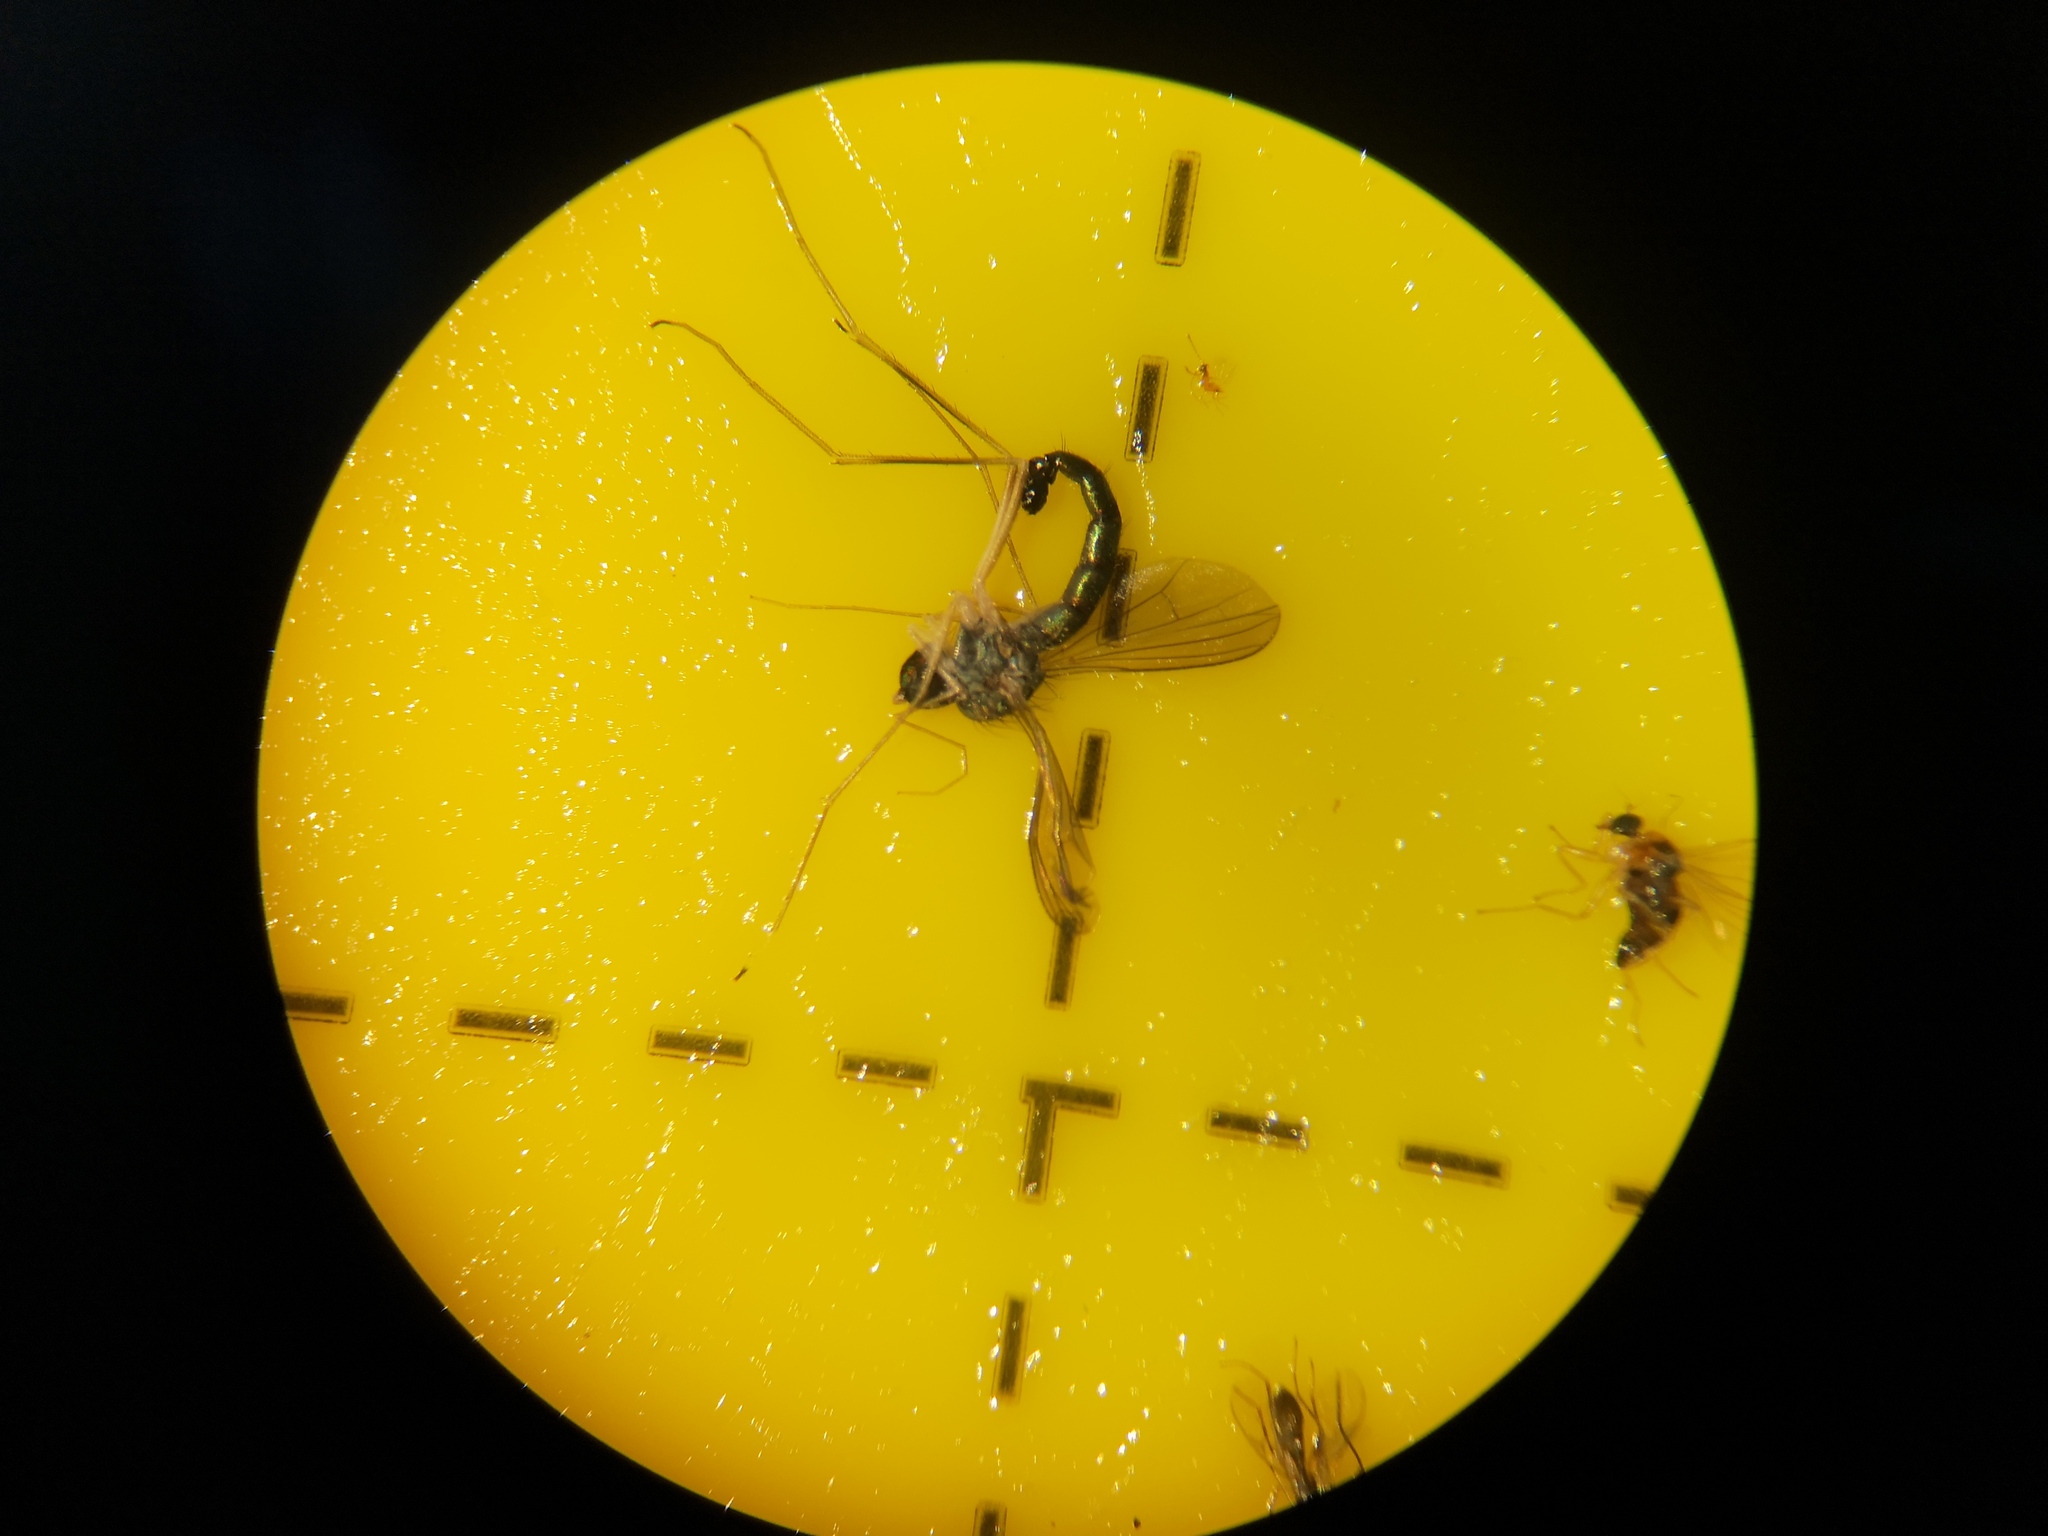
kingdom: Animalia
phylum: Arthropoda
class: Insecta
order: Diptera
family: Dolichopodidae
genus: Sciapus
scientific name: Sciapus platypterus
